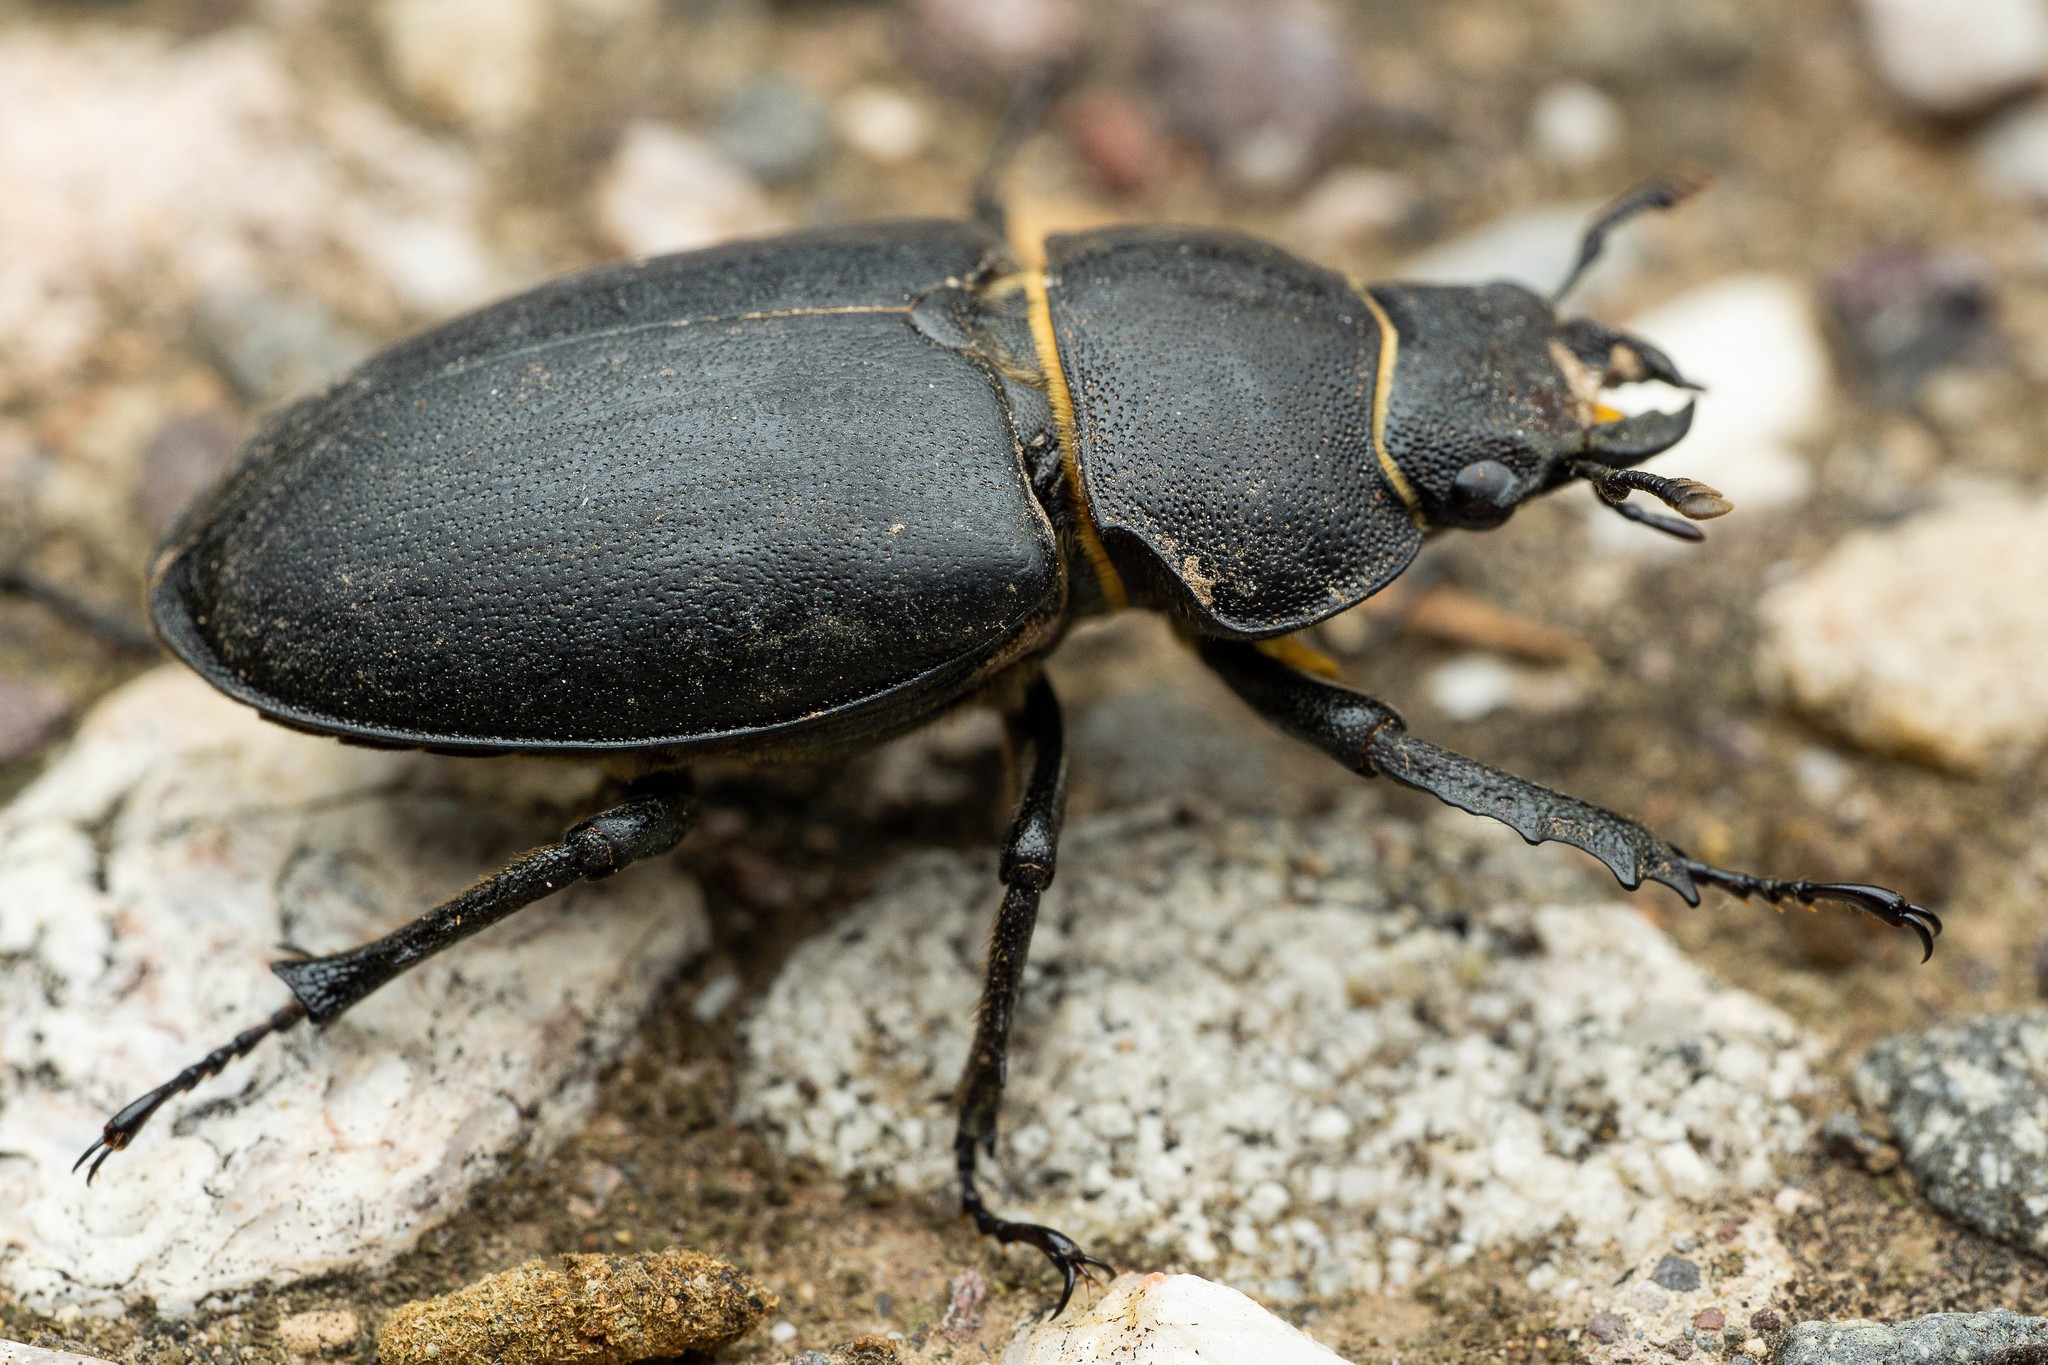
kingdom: Animalia
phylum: Arthropoda
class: Insecta
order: Coleoptera
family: Lucanidae
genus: Lucanus
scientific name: Lucanus mazama
